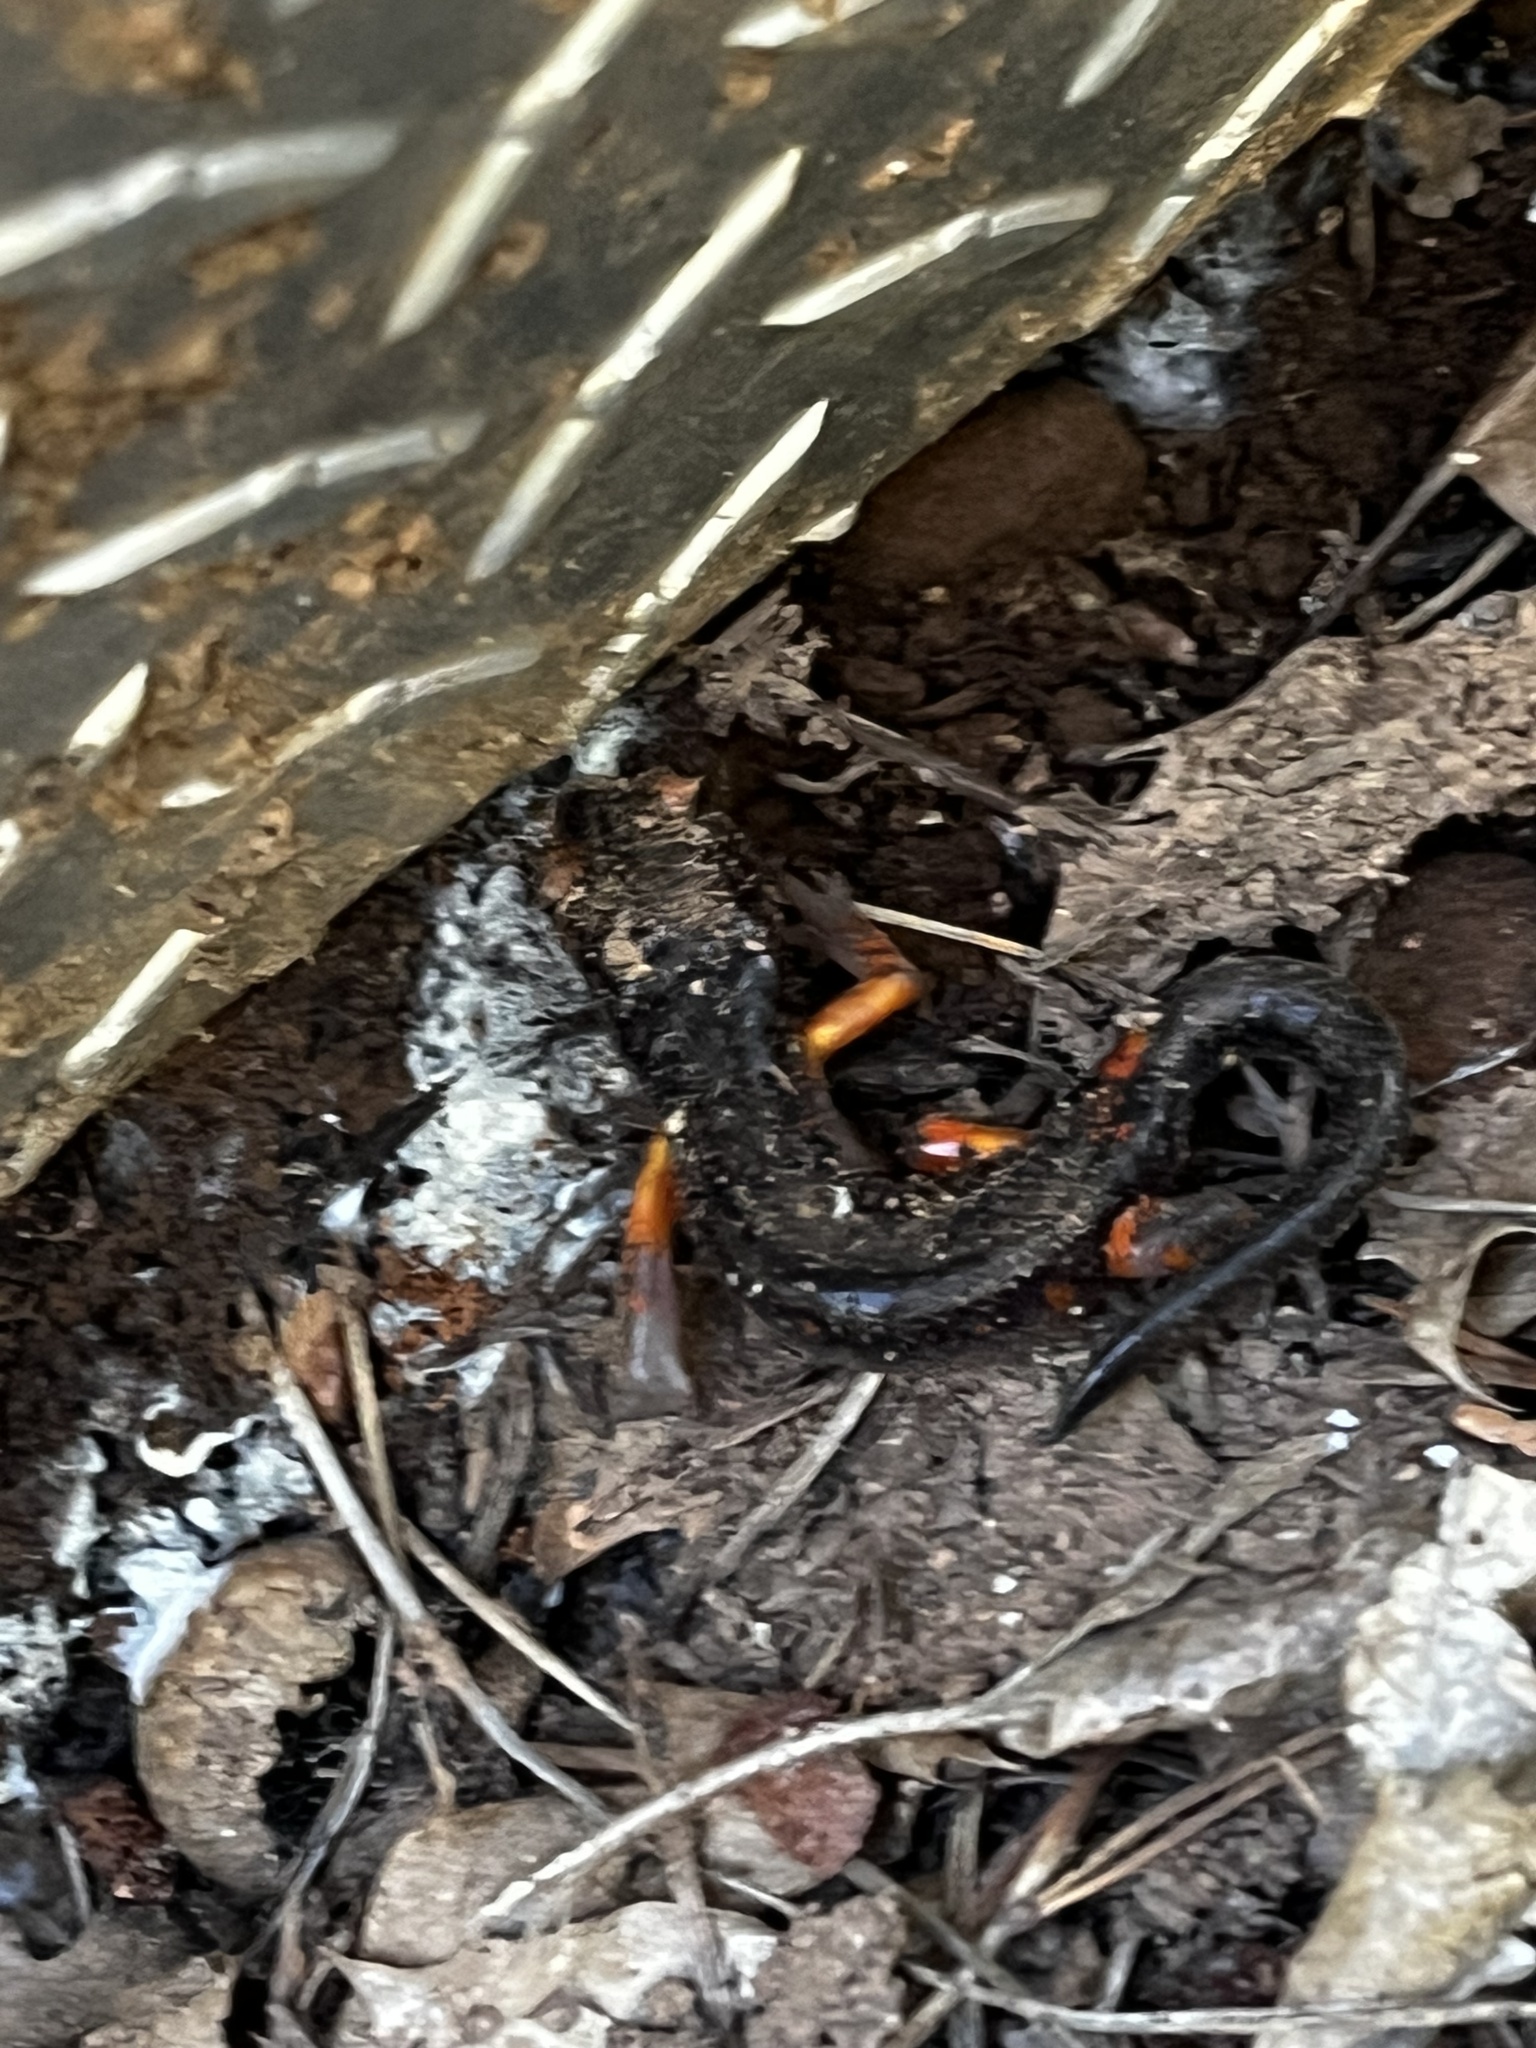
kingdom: Animalia
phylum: Chordata
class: Amphibia
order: Caudata
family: Plethodontidae
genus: Ensatina
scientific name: Ensatina eschscholtzii
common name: Ensatina
